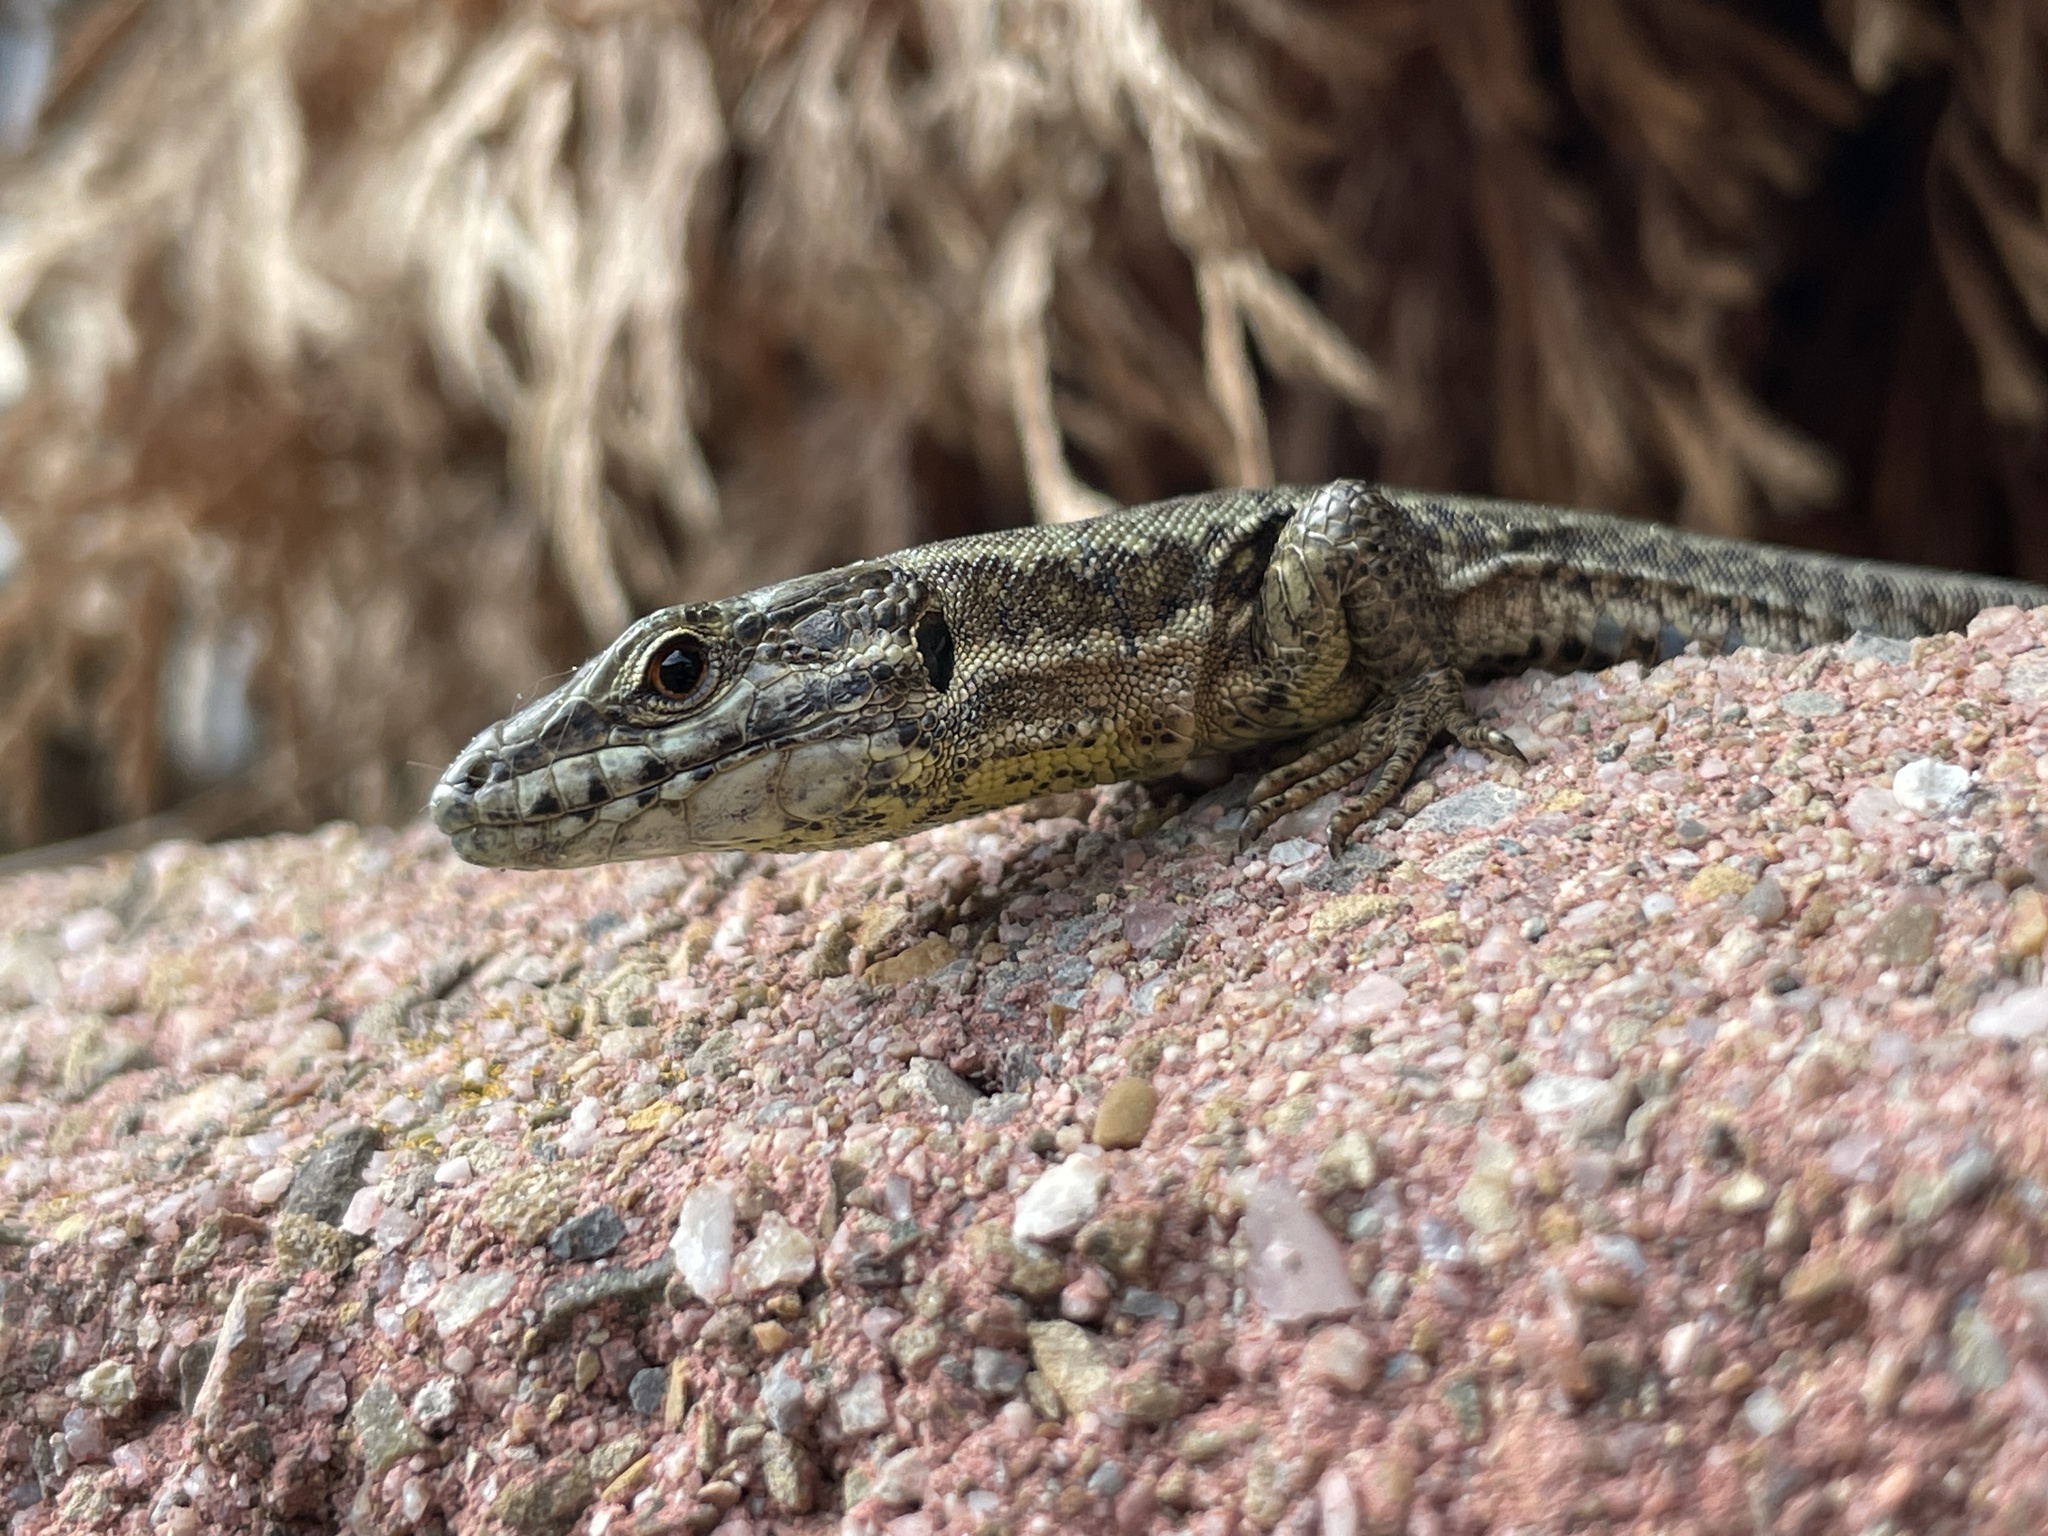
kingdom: Animalia
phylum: Chordata
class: Squamata
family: Lacertidae
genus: Podarcis
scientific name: Podarcis muralis
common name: Common wall lizard
